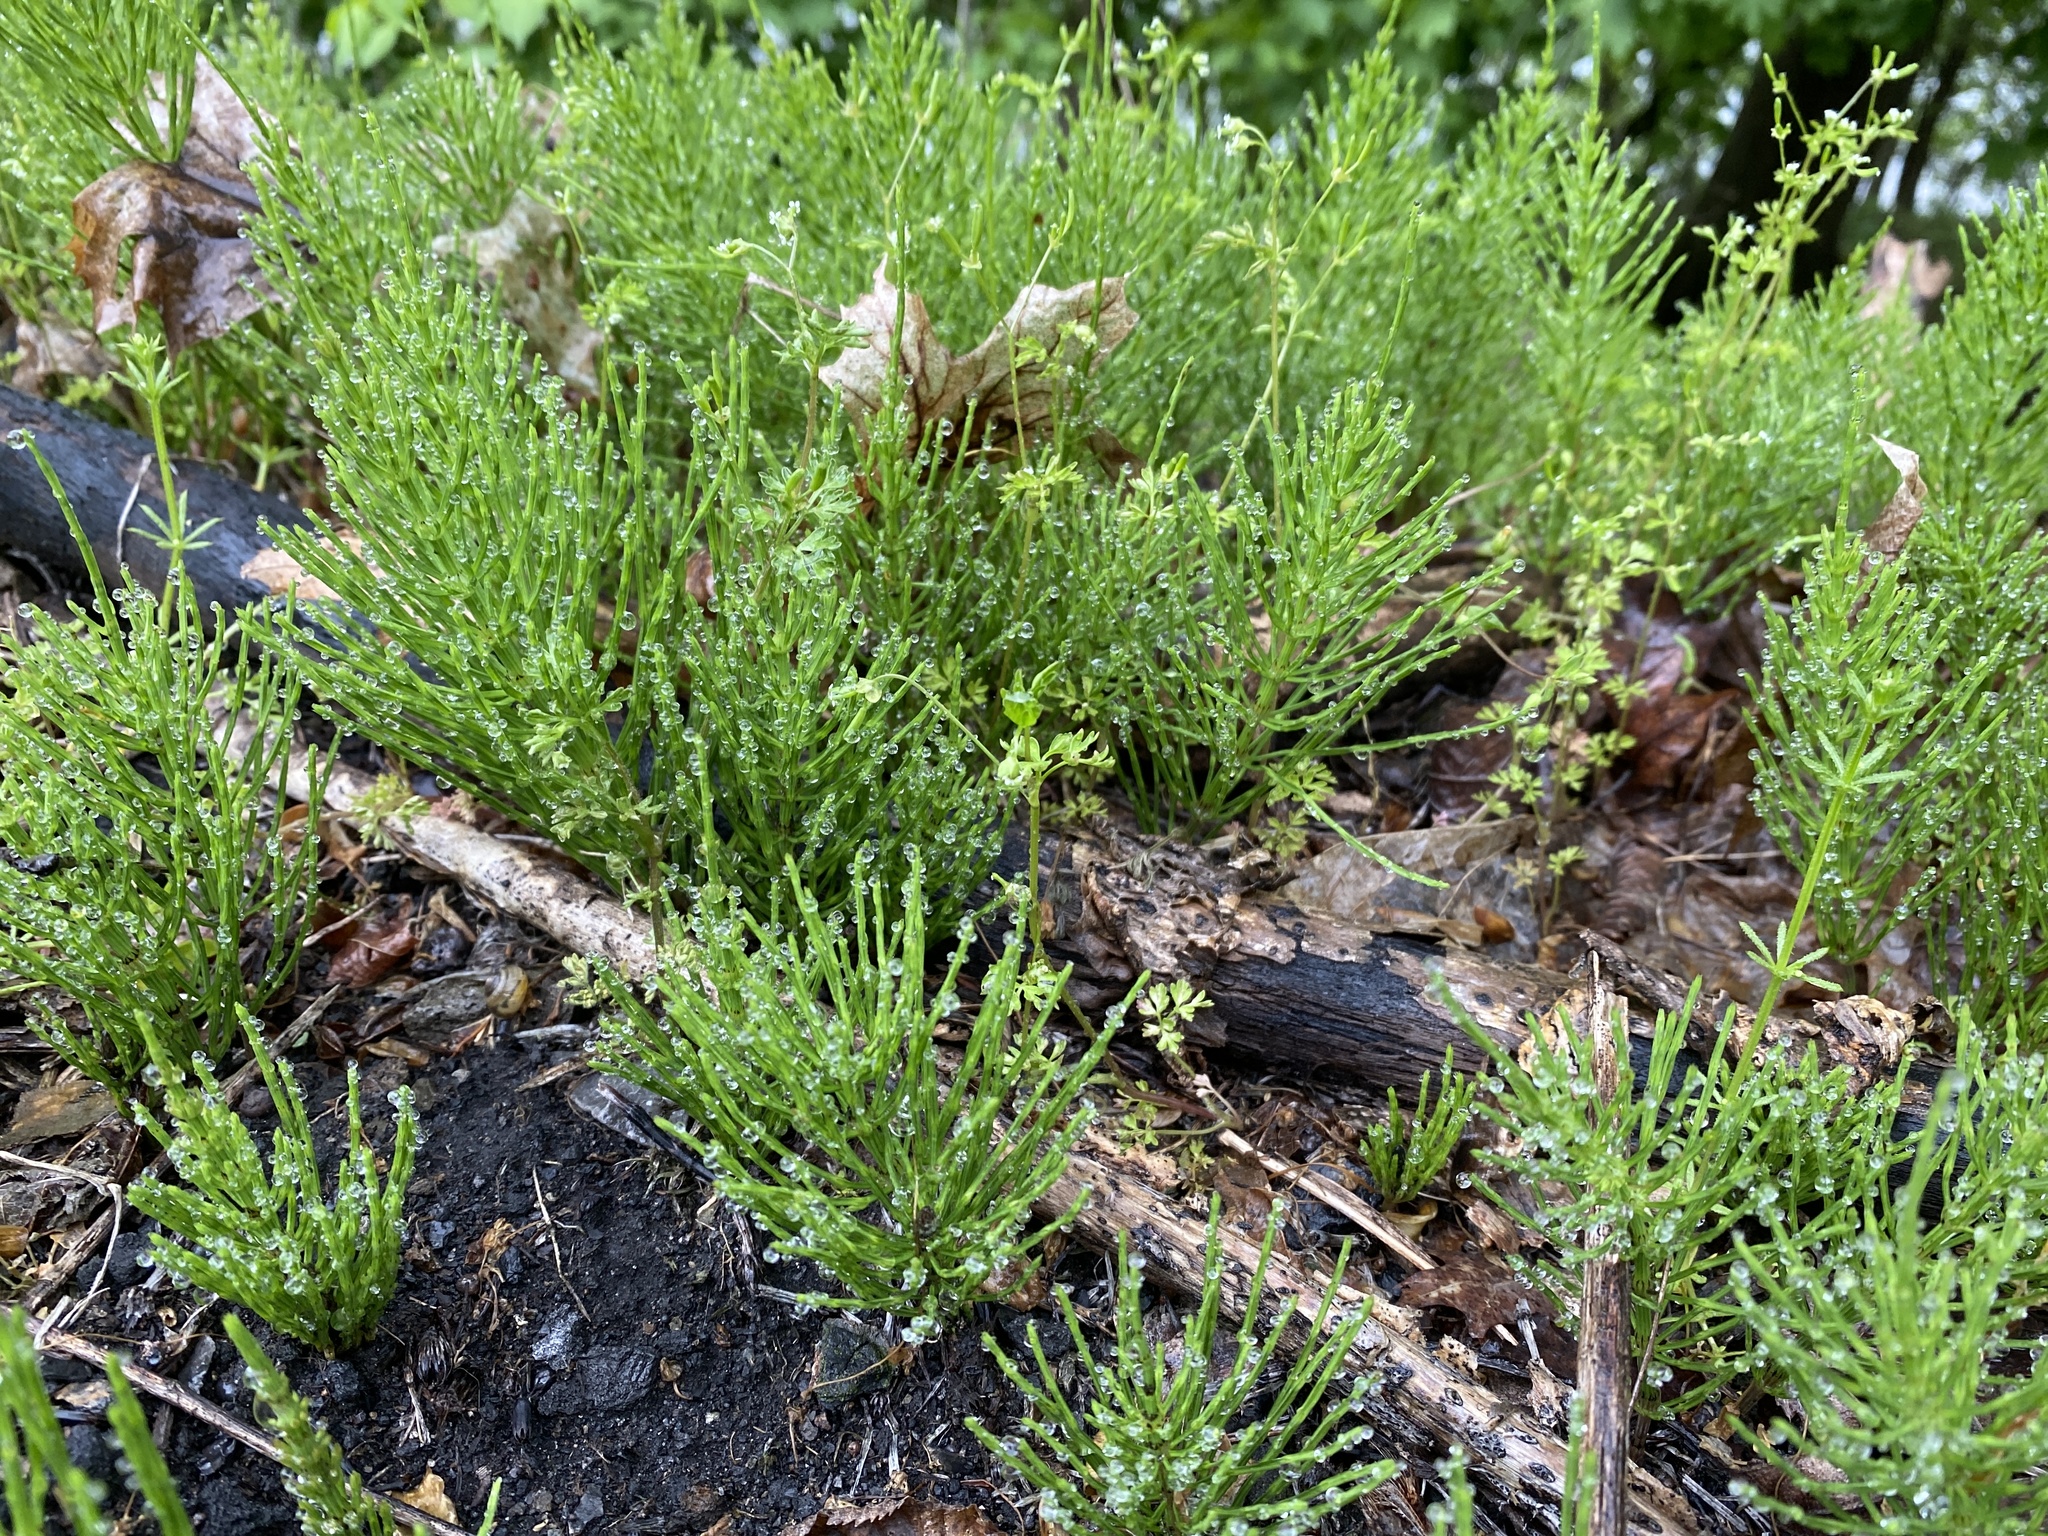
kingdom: Plantae
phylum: Tracheophyta
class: Polypodiopsida
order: Equisetales
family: Equisetaceae
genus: Equisetum
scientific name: Equisetum arvense
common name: Field horsetail
